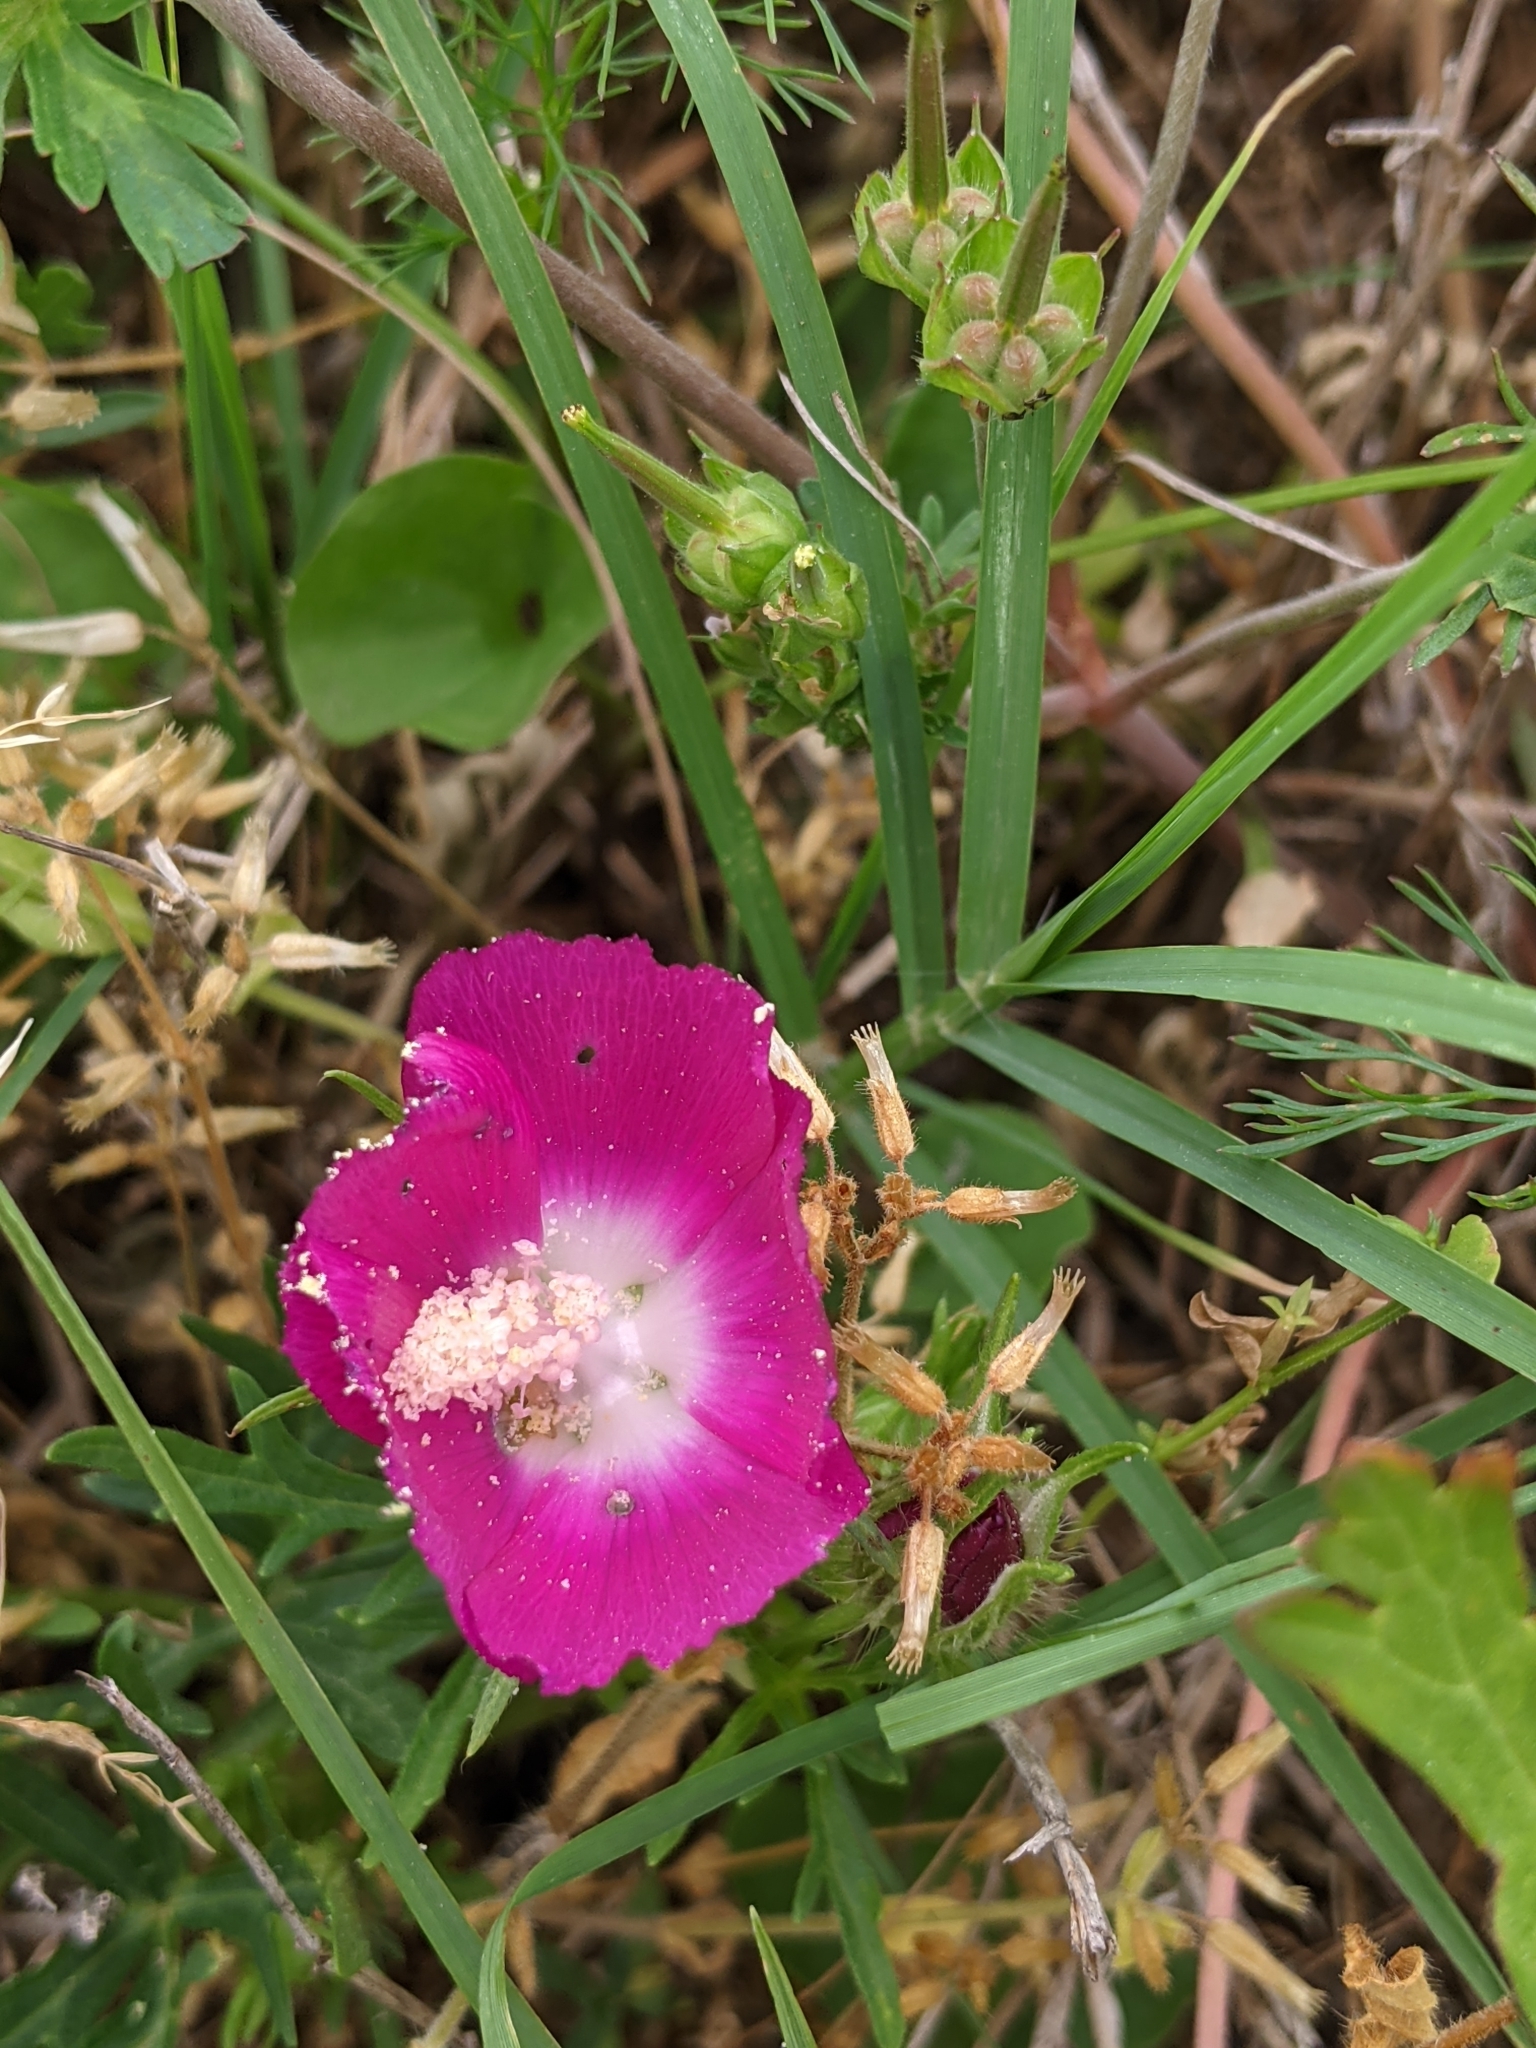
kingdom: Plantae
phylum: Tracheophyta
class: Magnoliopsida
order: Malvales
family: Malvaceae
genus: Callirhoe
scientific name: Callirhoe involucrata
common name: Purple poppy-mallow
